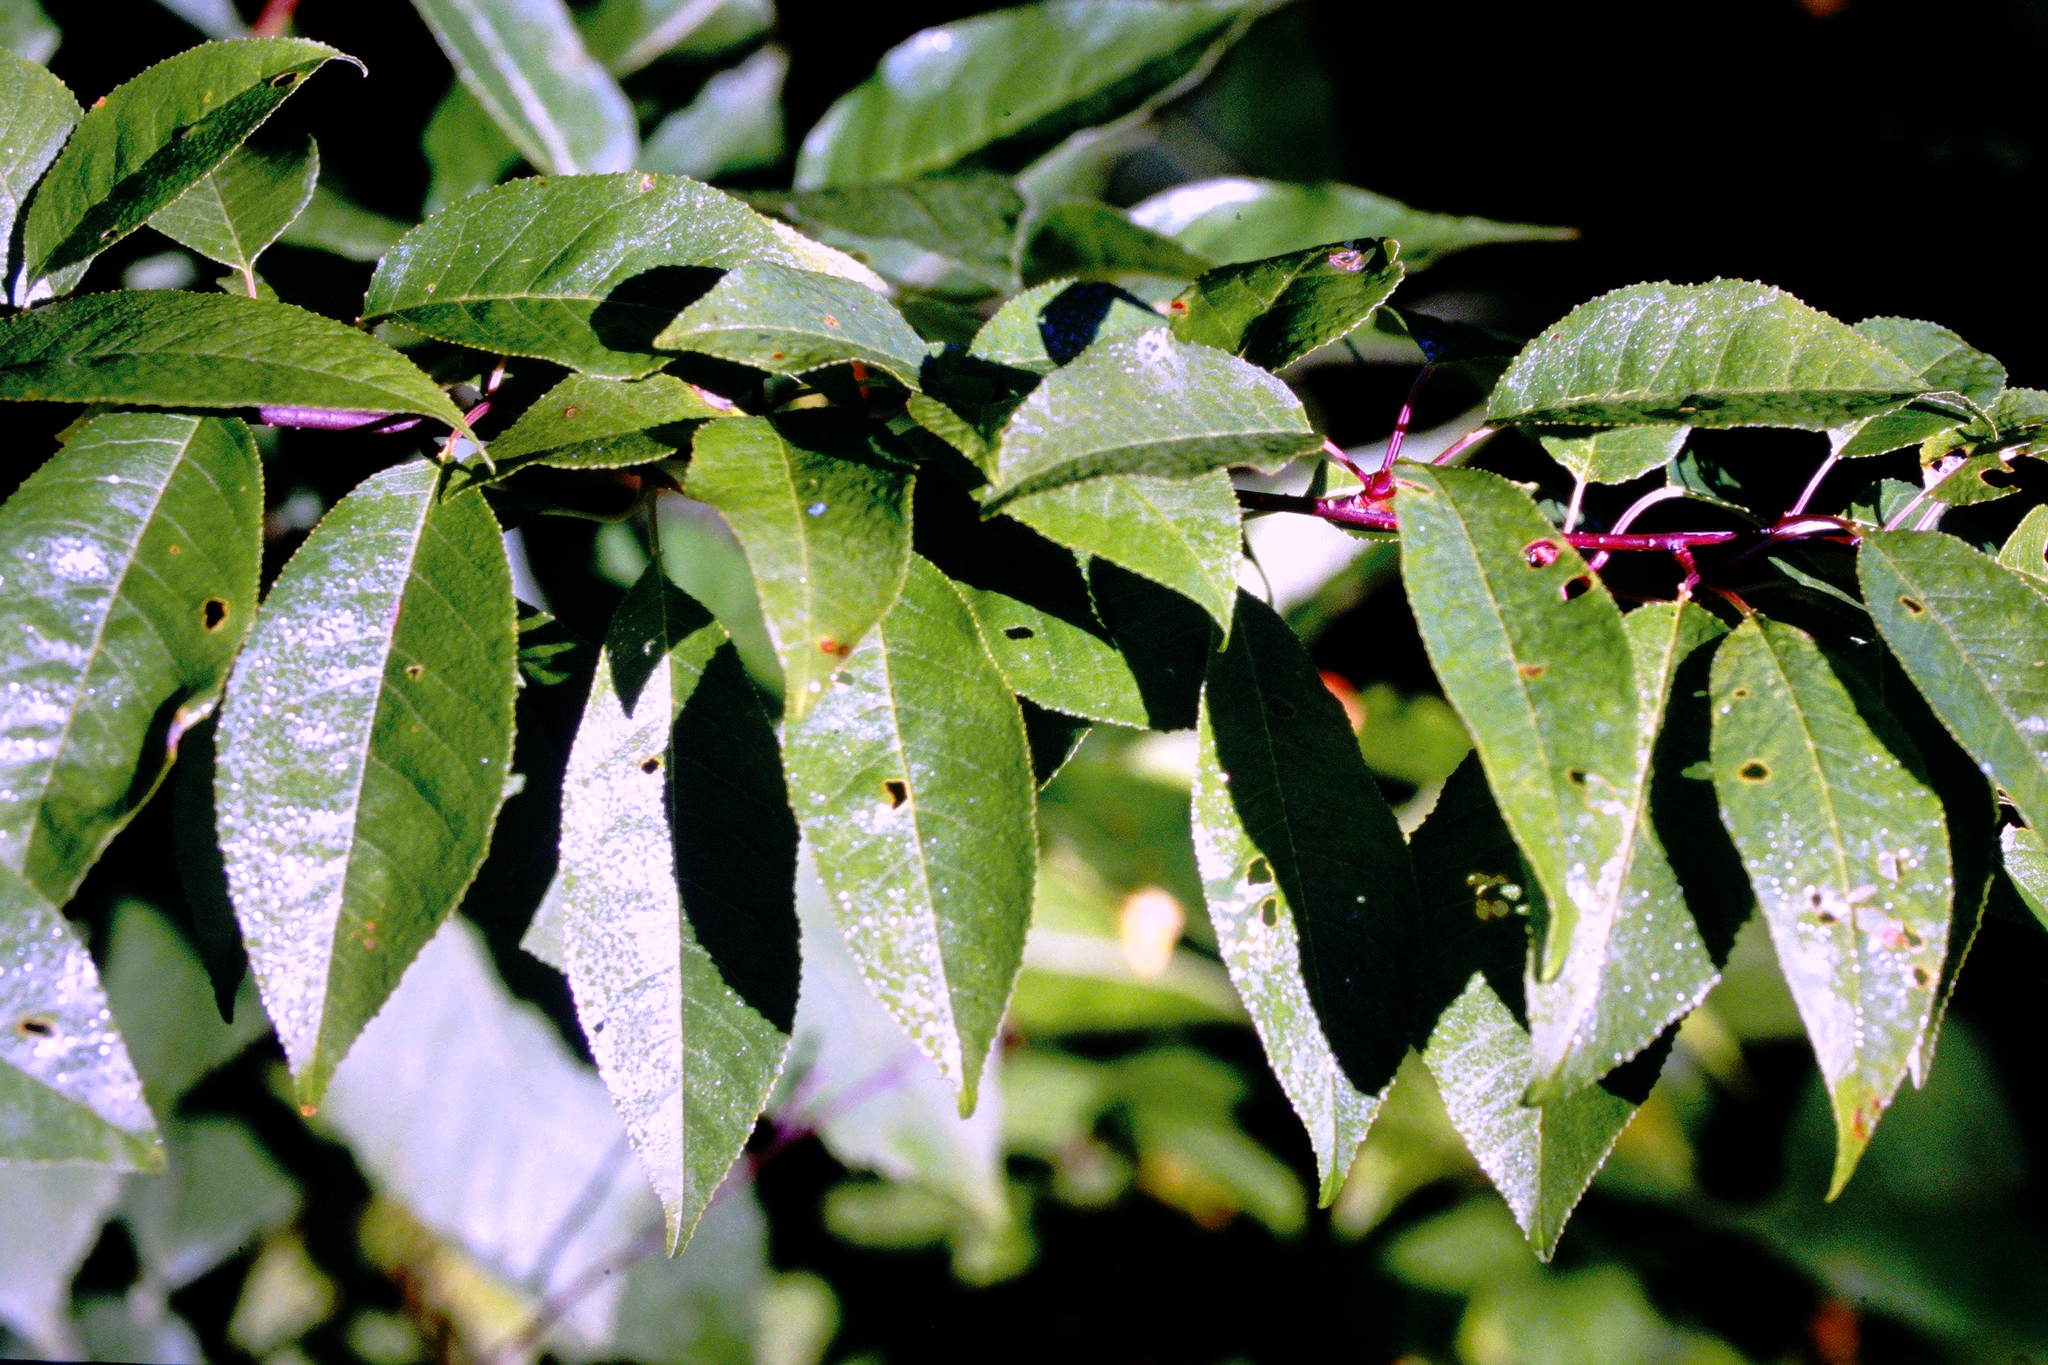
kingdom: Plantae
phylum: Tracheophyta
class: Magnoliopsida
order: Rosales
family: Rosaceae
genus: Prunus
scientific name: Prunus pensylvanica
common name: Pin cherry
